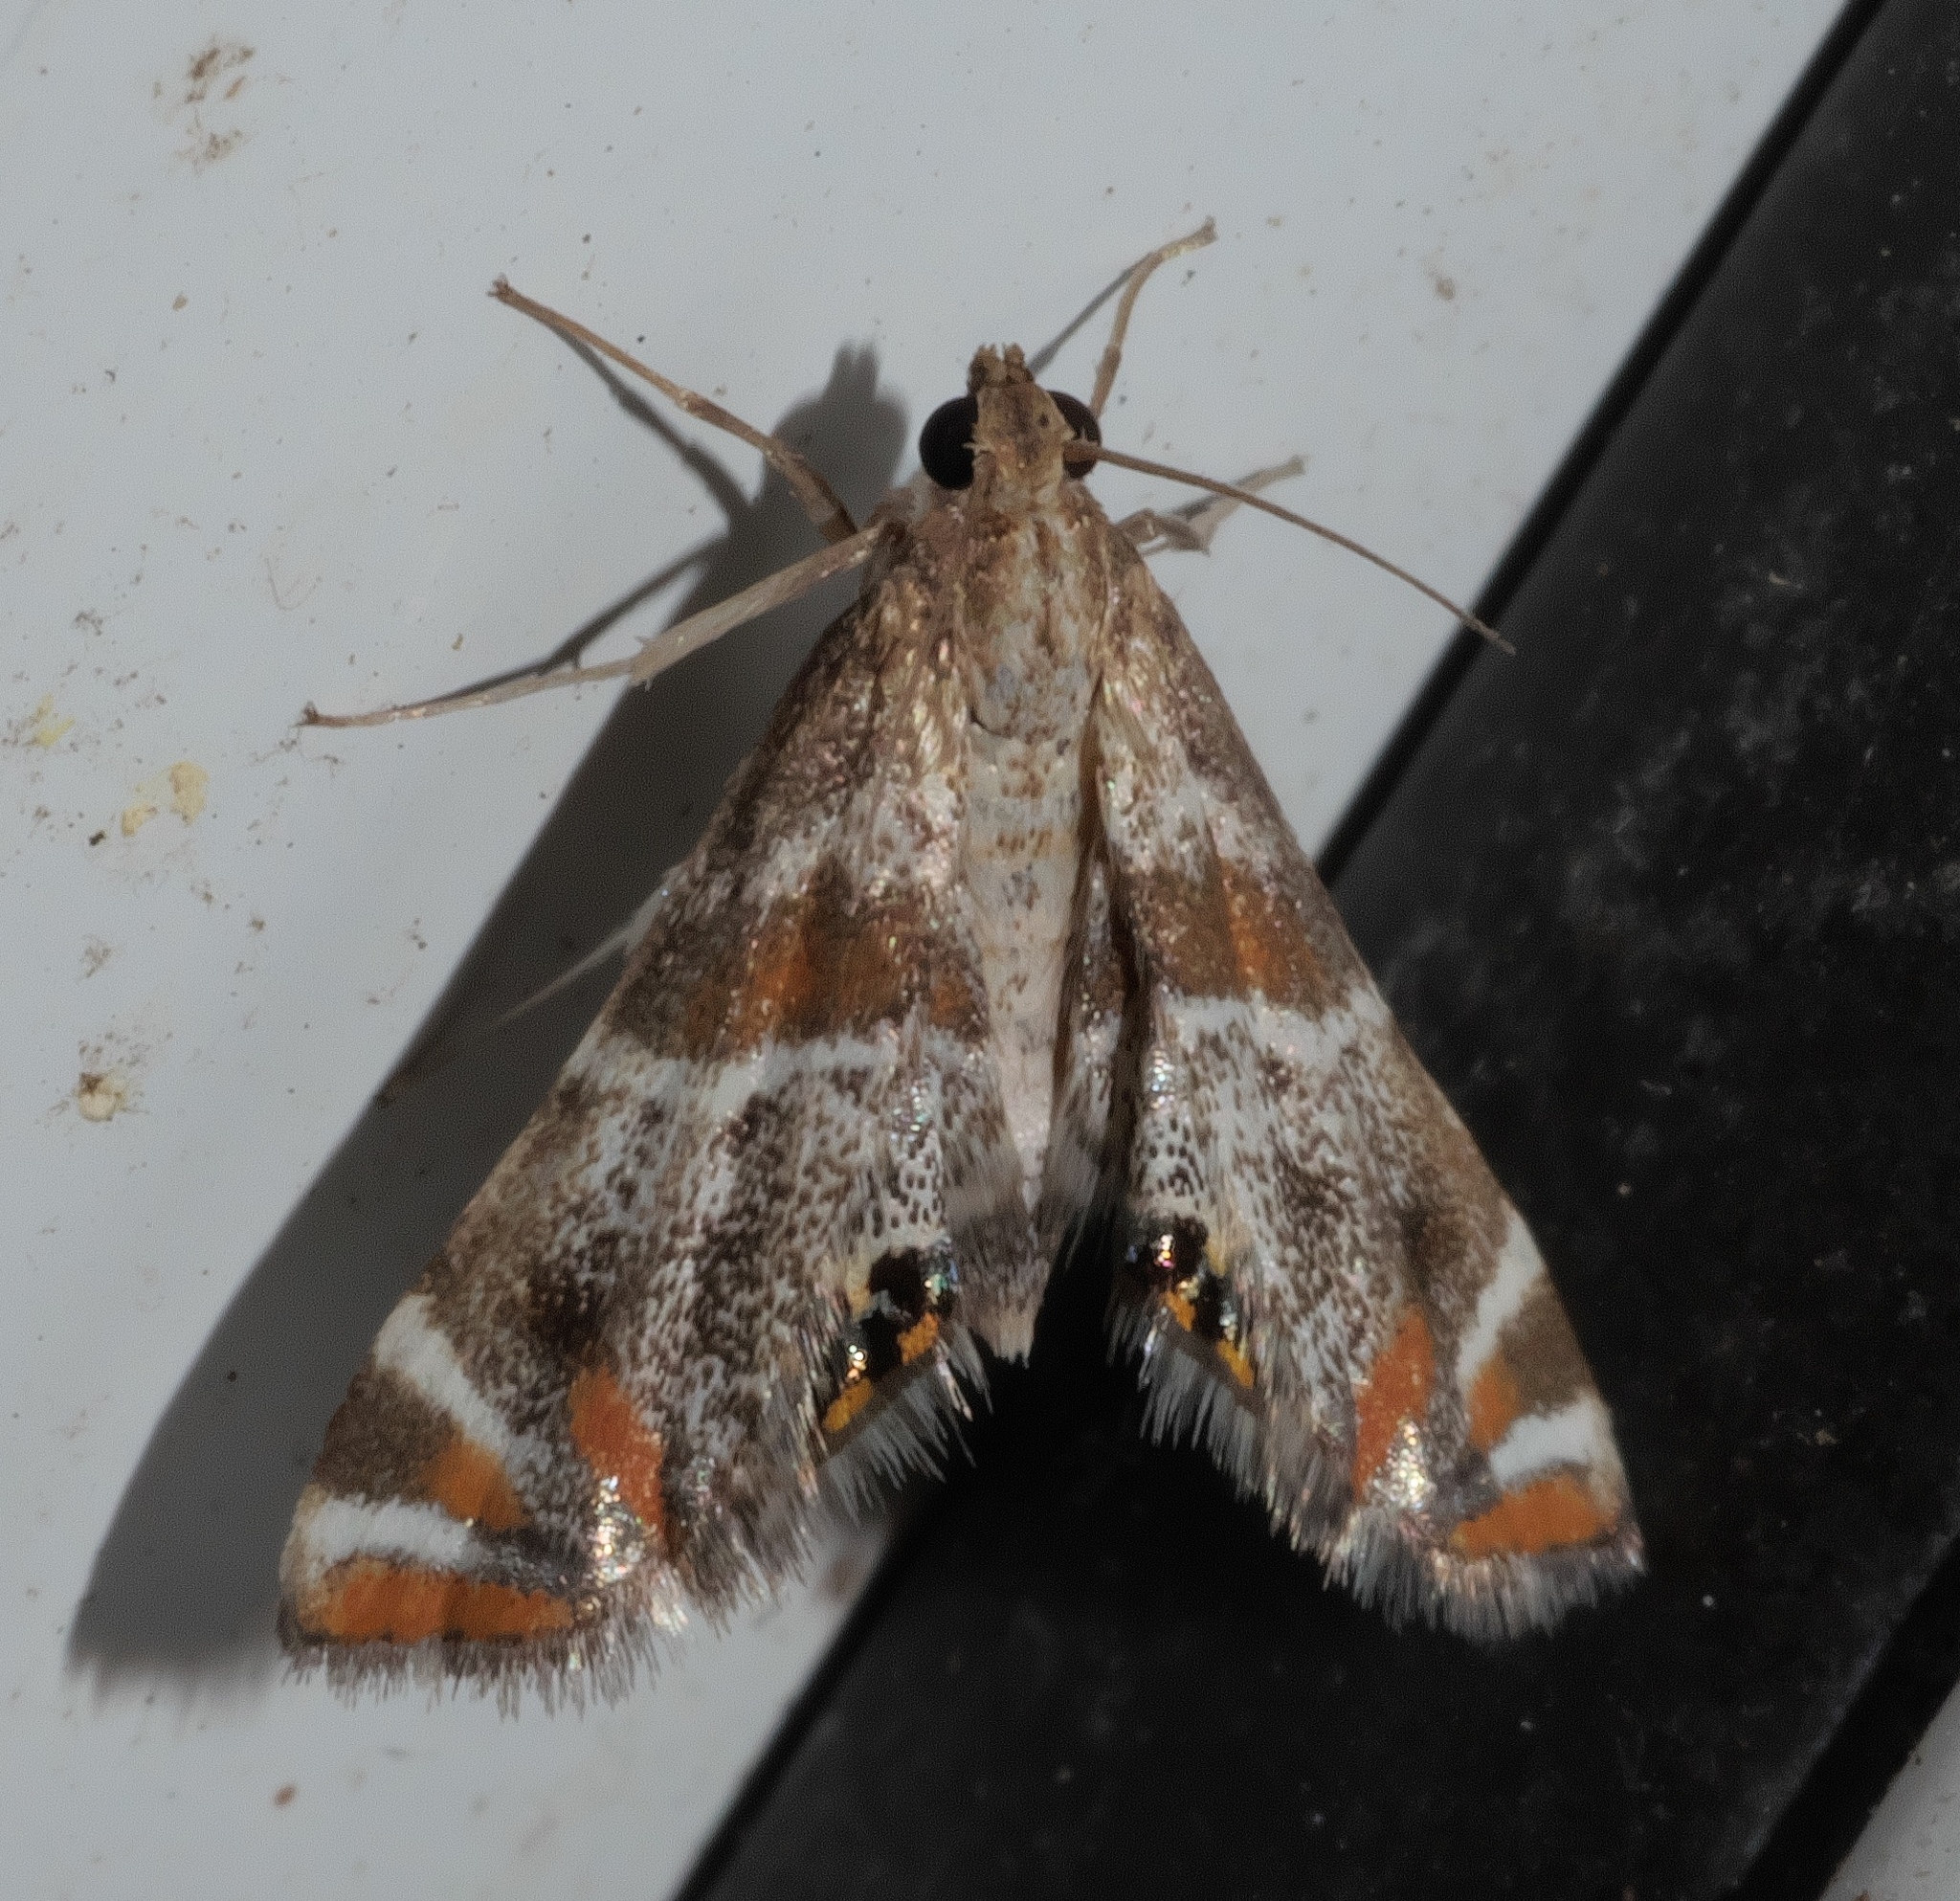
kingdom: Animalia
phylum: Arthropoda
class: Insecta
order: Lepidoptera
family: Crambidae
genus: Petrophila
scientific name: Petrophila jaliscalis
